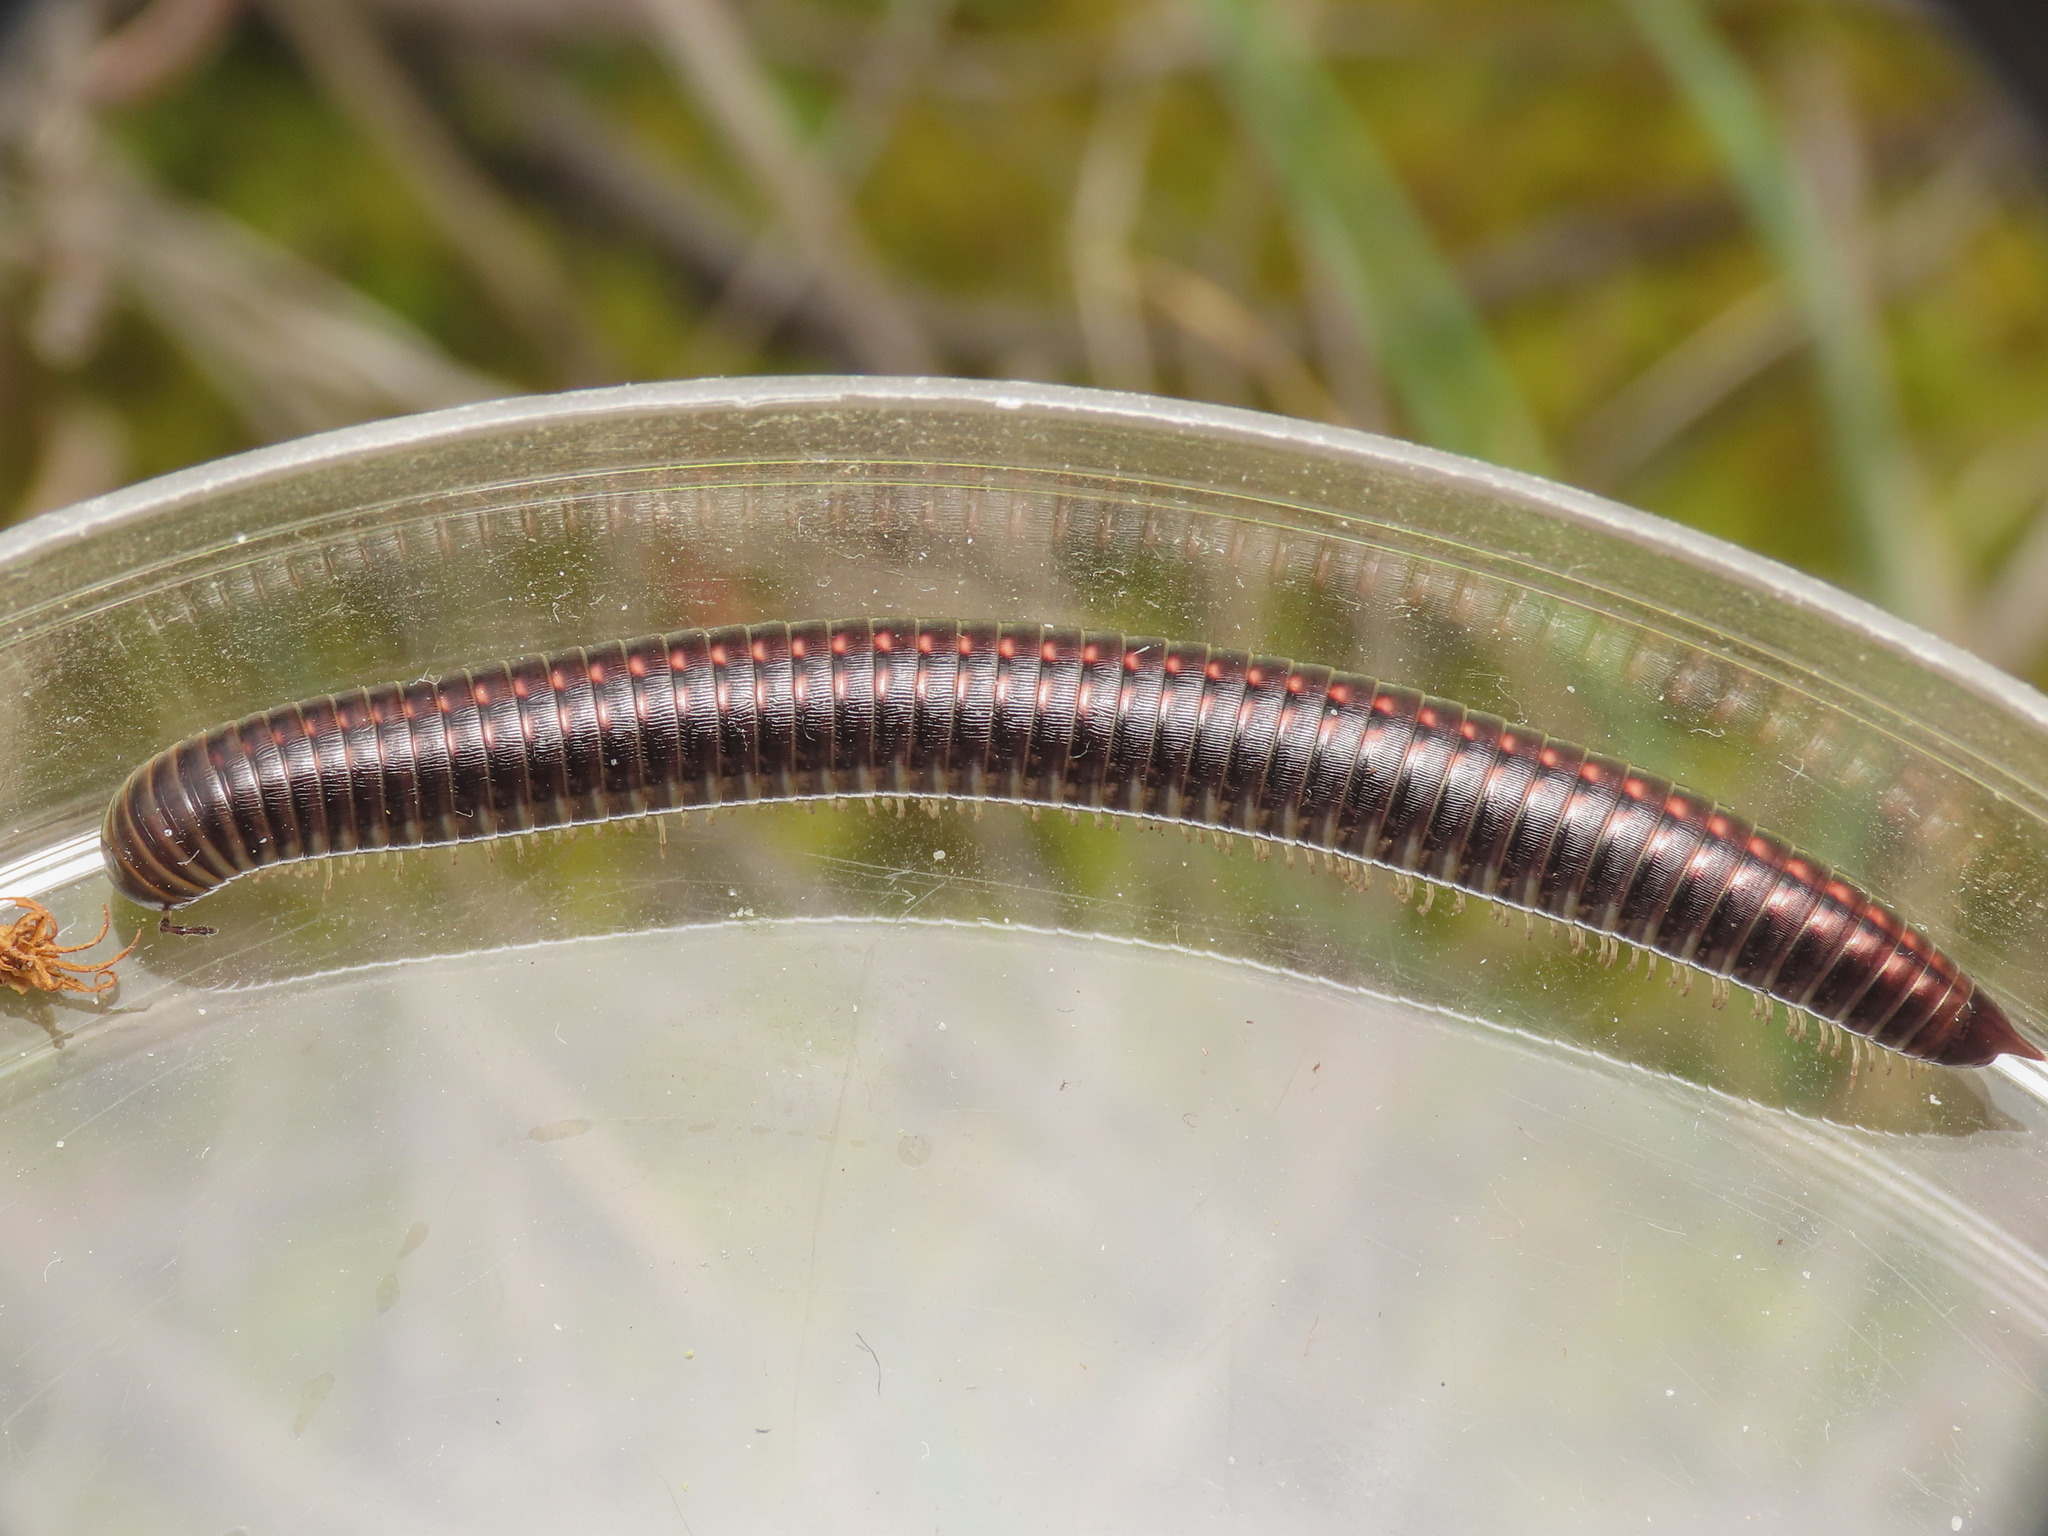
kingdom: Animalia
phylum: Arthropoda
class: Diplopoda
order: Julida
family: Julidae
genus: Ommatoiulus
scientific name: Ommatoiulus sabulosus
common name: Striped millipede
